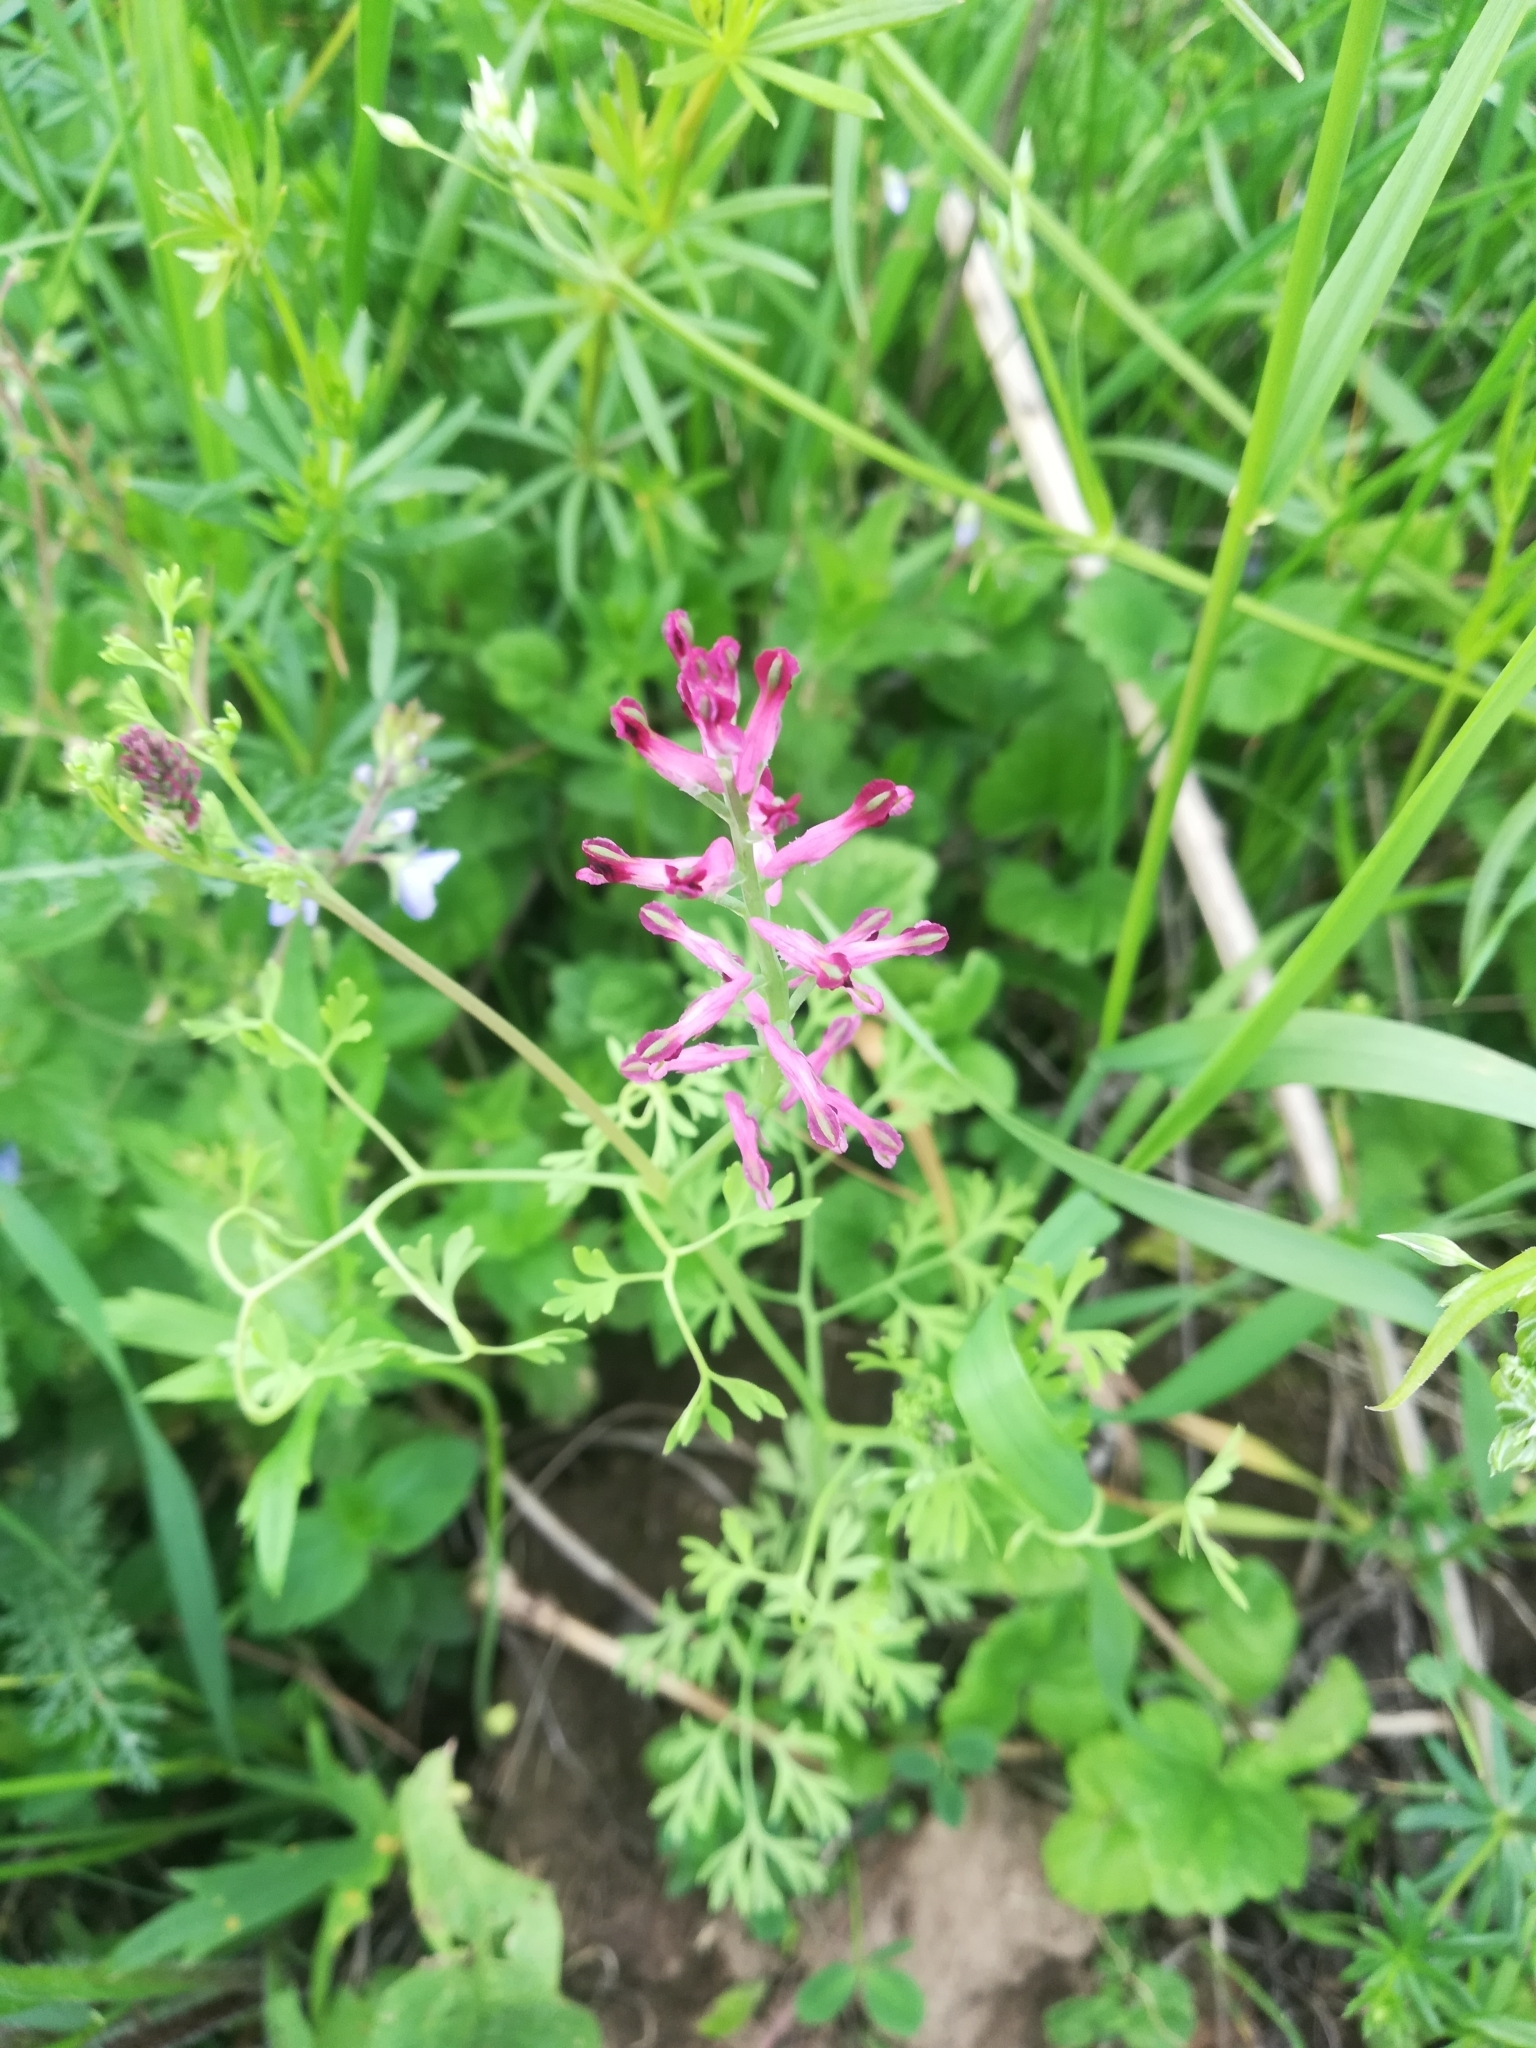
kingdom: Plantae
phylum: Tracheophyta
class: Magnoliopsida
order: Ranunculales
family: Papaveraceae
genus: Fumaria
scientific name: Fumaria officinalis
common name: Common fumitory
